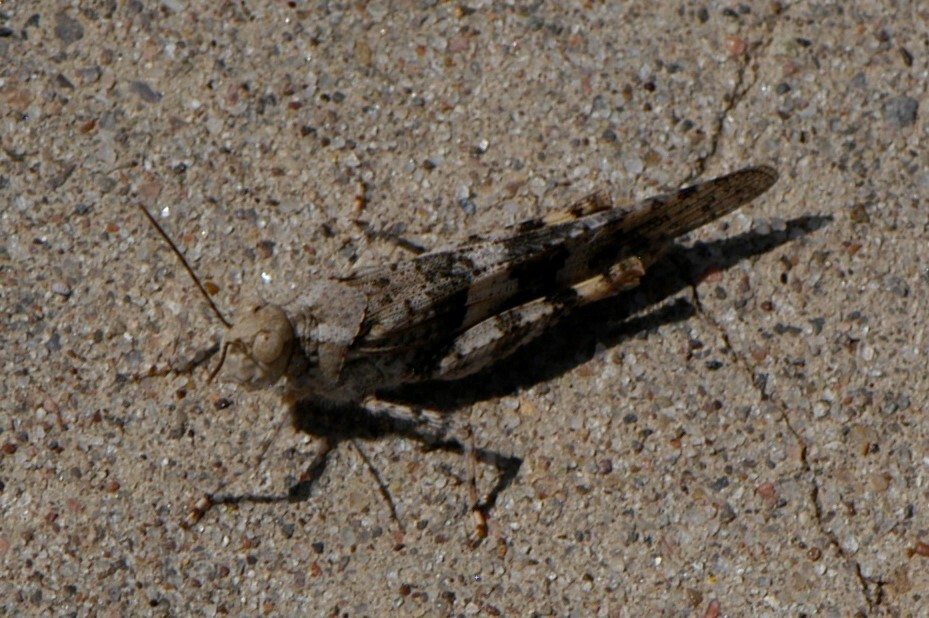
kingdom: Animalia
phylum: Arthropoda
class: Insecta
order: Orthoptera
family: Acrididae
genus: Trimerotropis
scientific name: Trimerotropis pallidipennis
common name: Pallid-winged grasshopper
